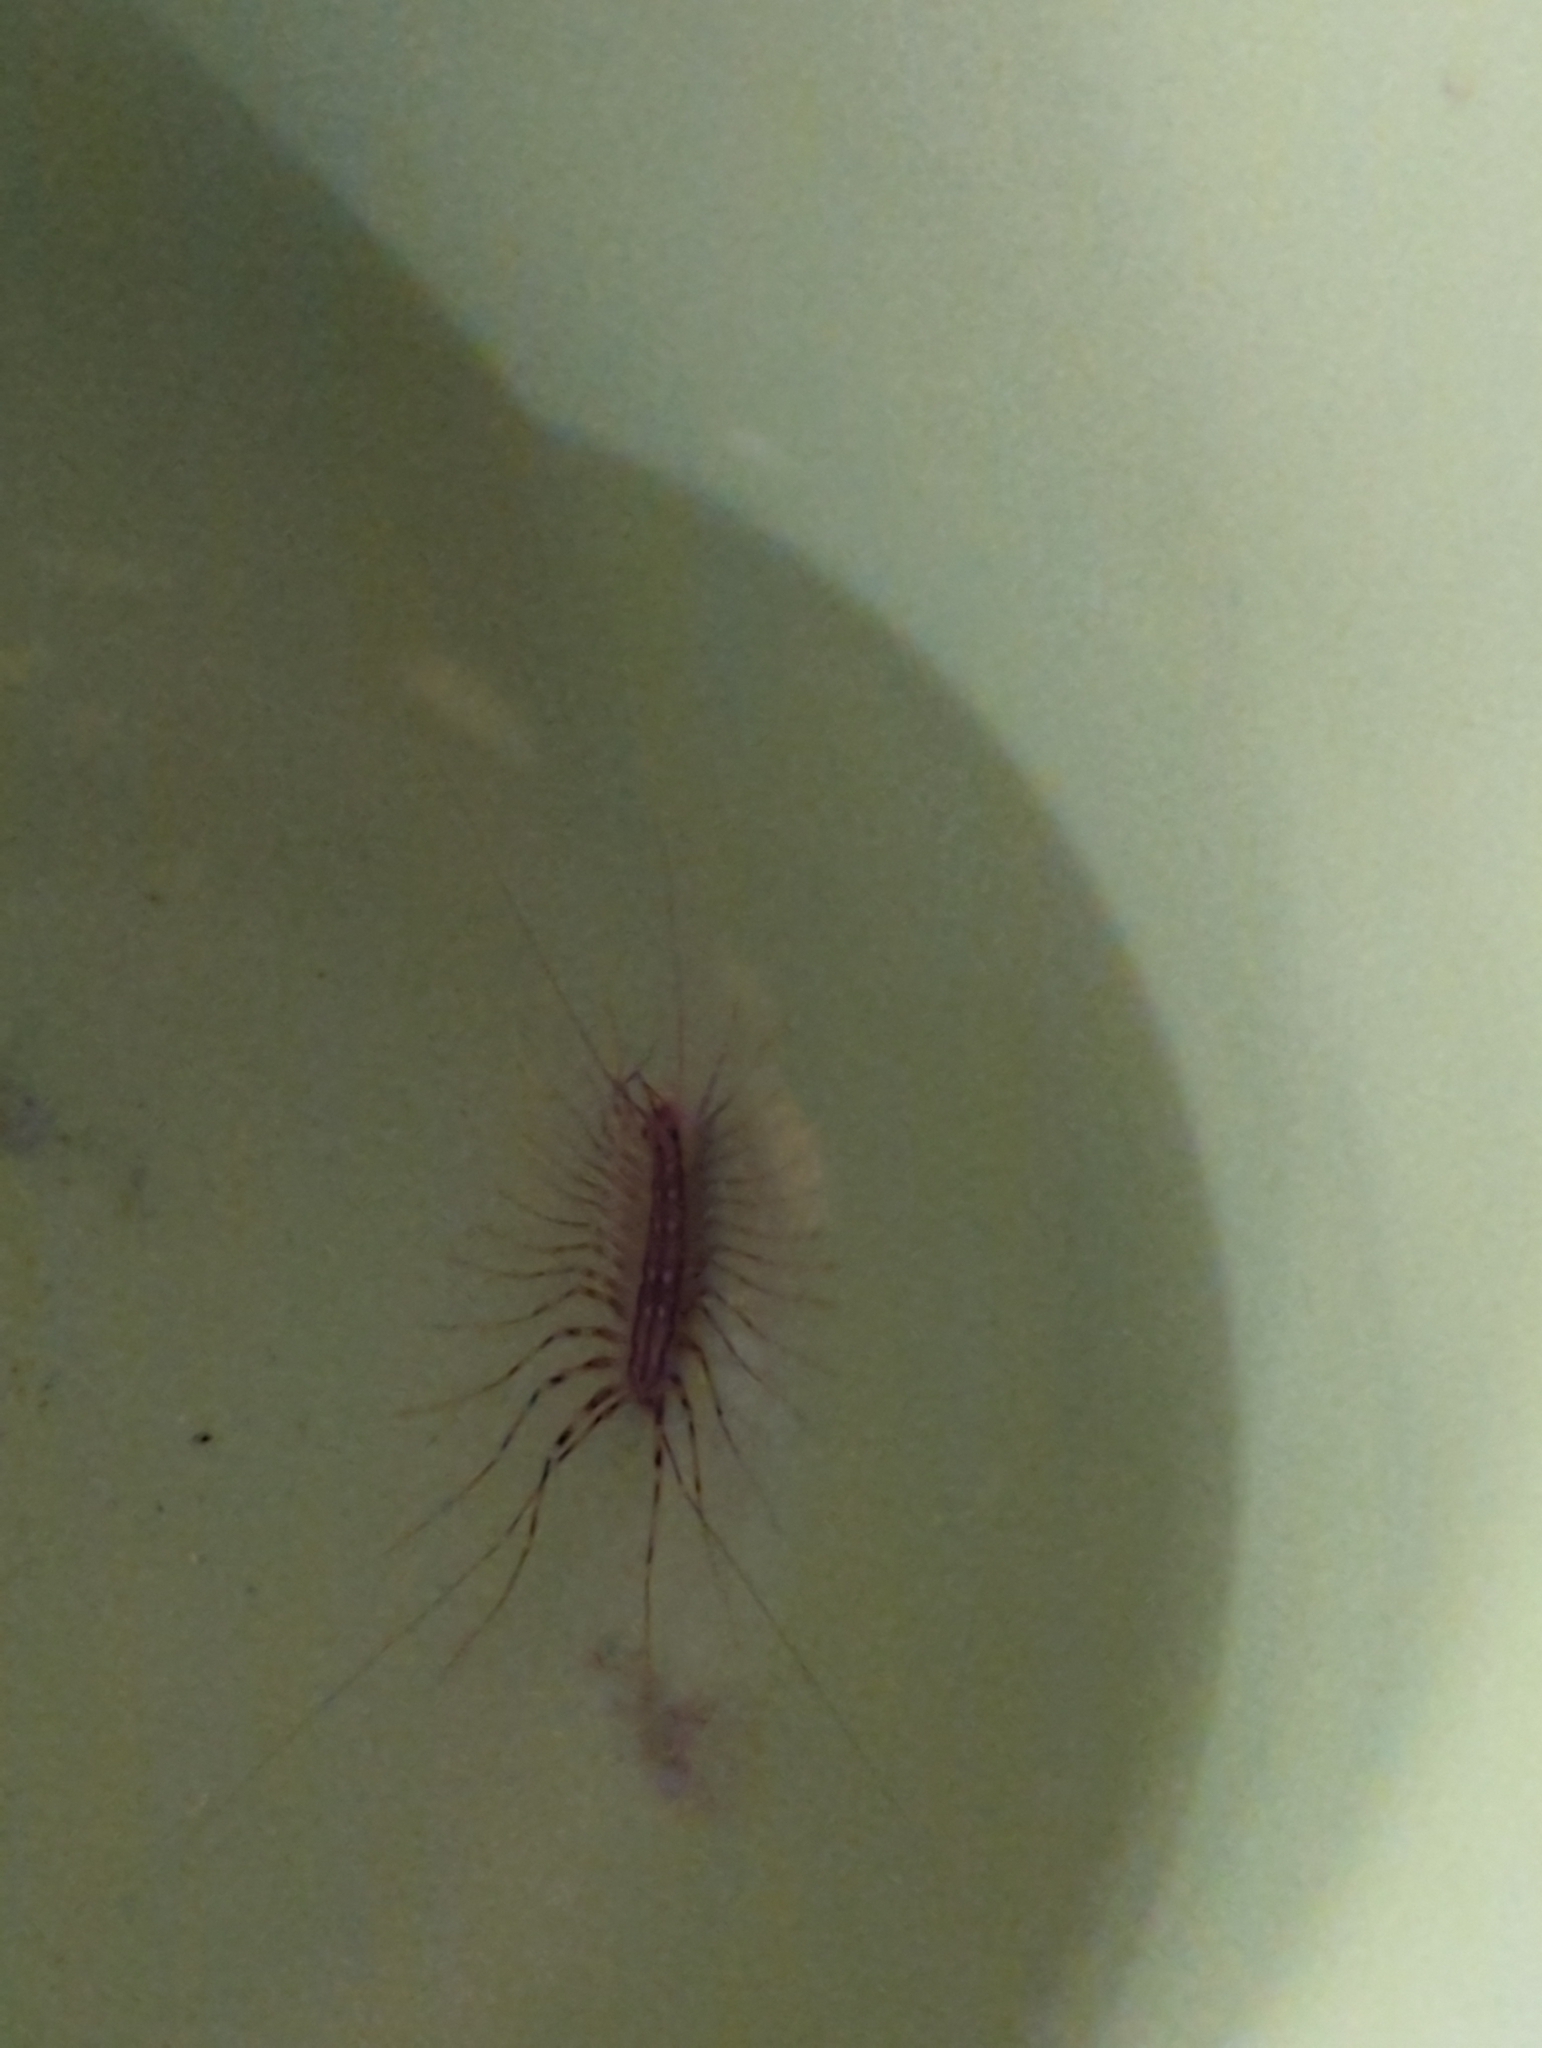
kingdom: Animalia
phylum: Arthropoda
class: Chilopoda
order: Scutigeromorpha
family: Scutigeridae
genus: Scutigera
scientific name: Scutigera coleoptrata
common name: House centipede
